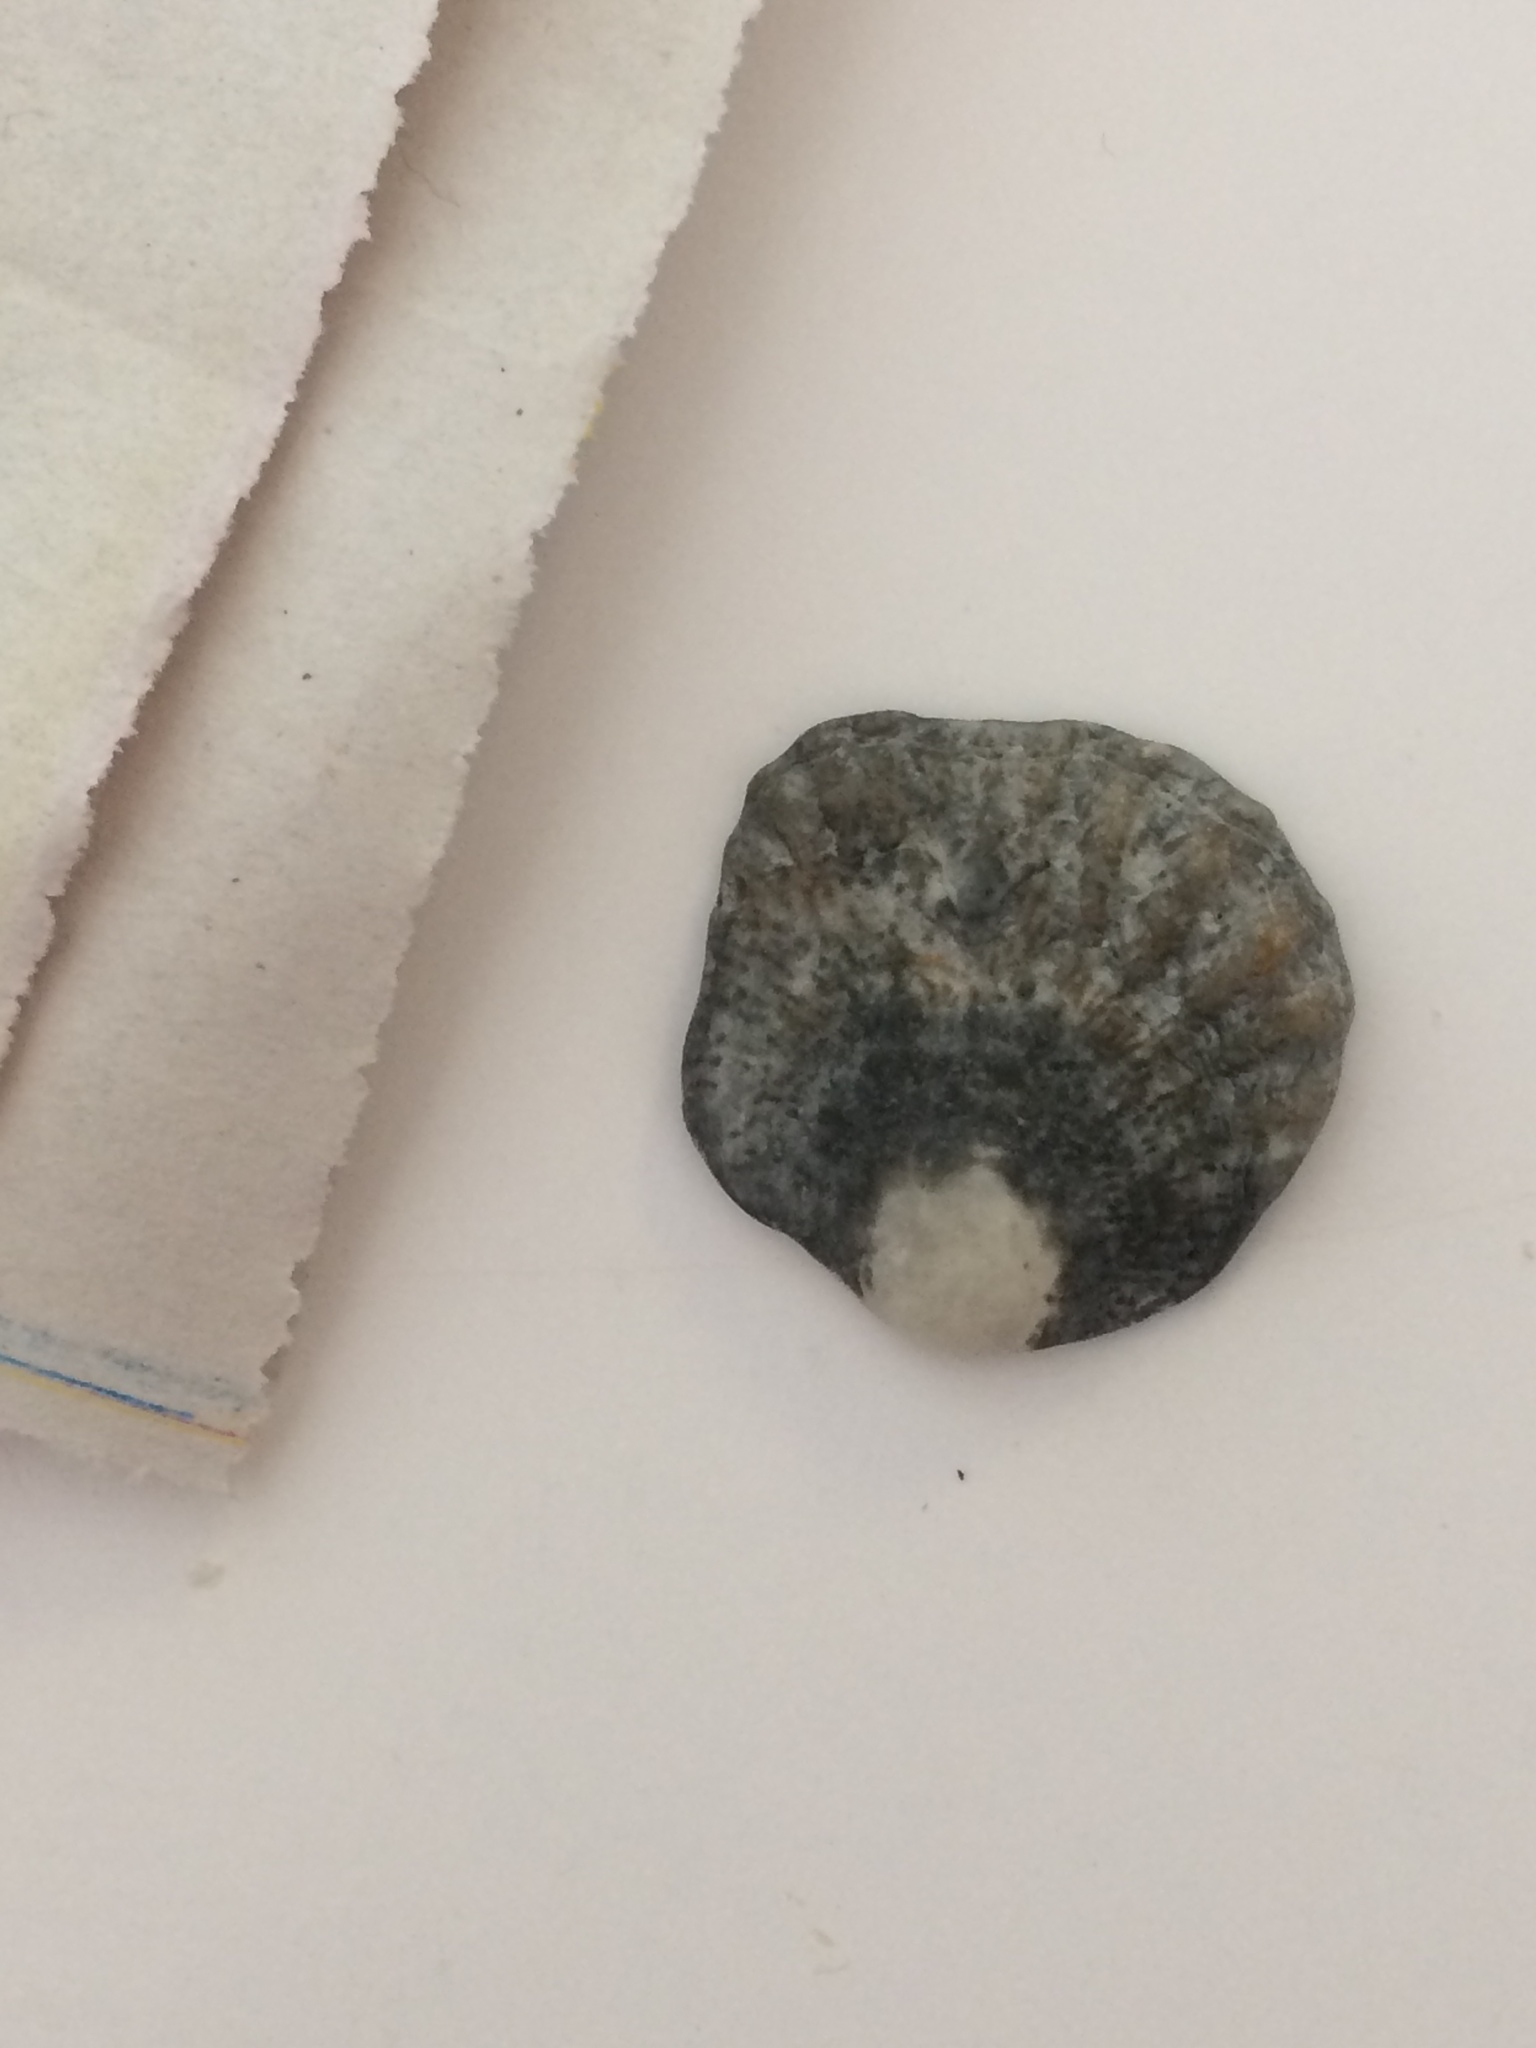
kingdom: Animalia
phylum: Mollusca
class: Bivalvia
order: Pectinida
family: Plicatulidae
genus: Plicatula
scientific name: Plicatula gibbosa
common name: Atlantic kitten's paw
